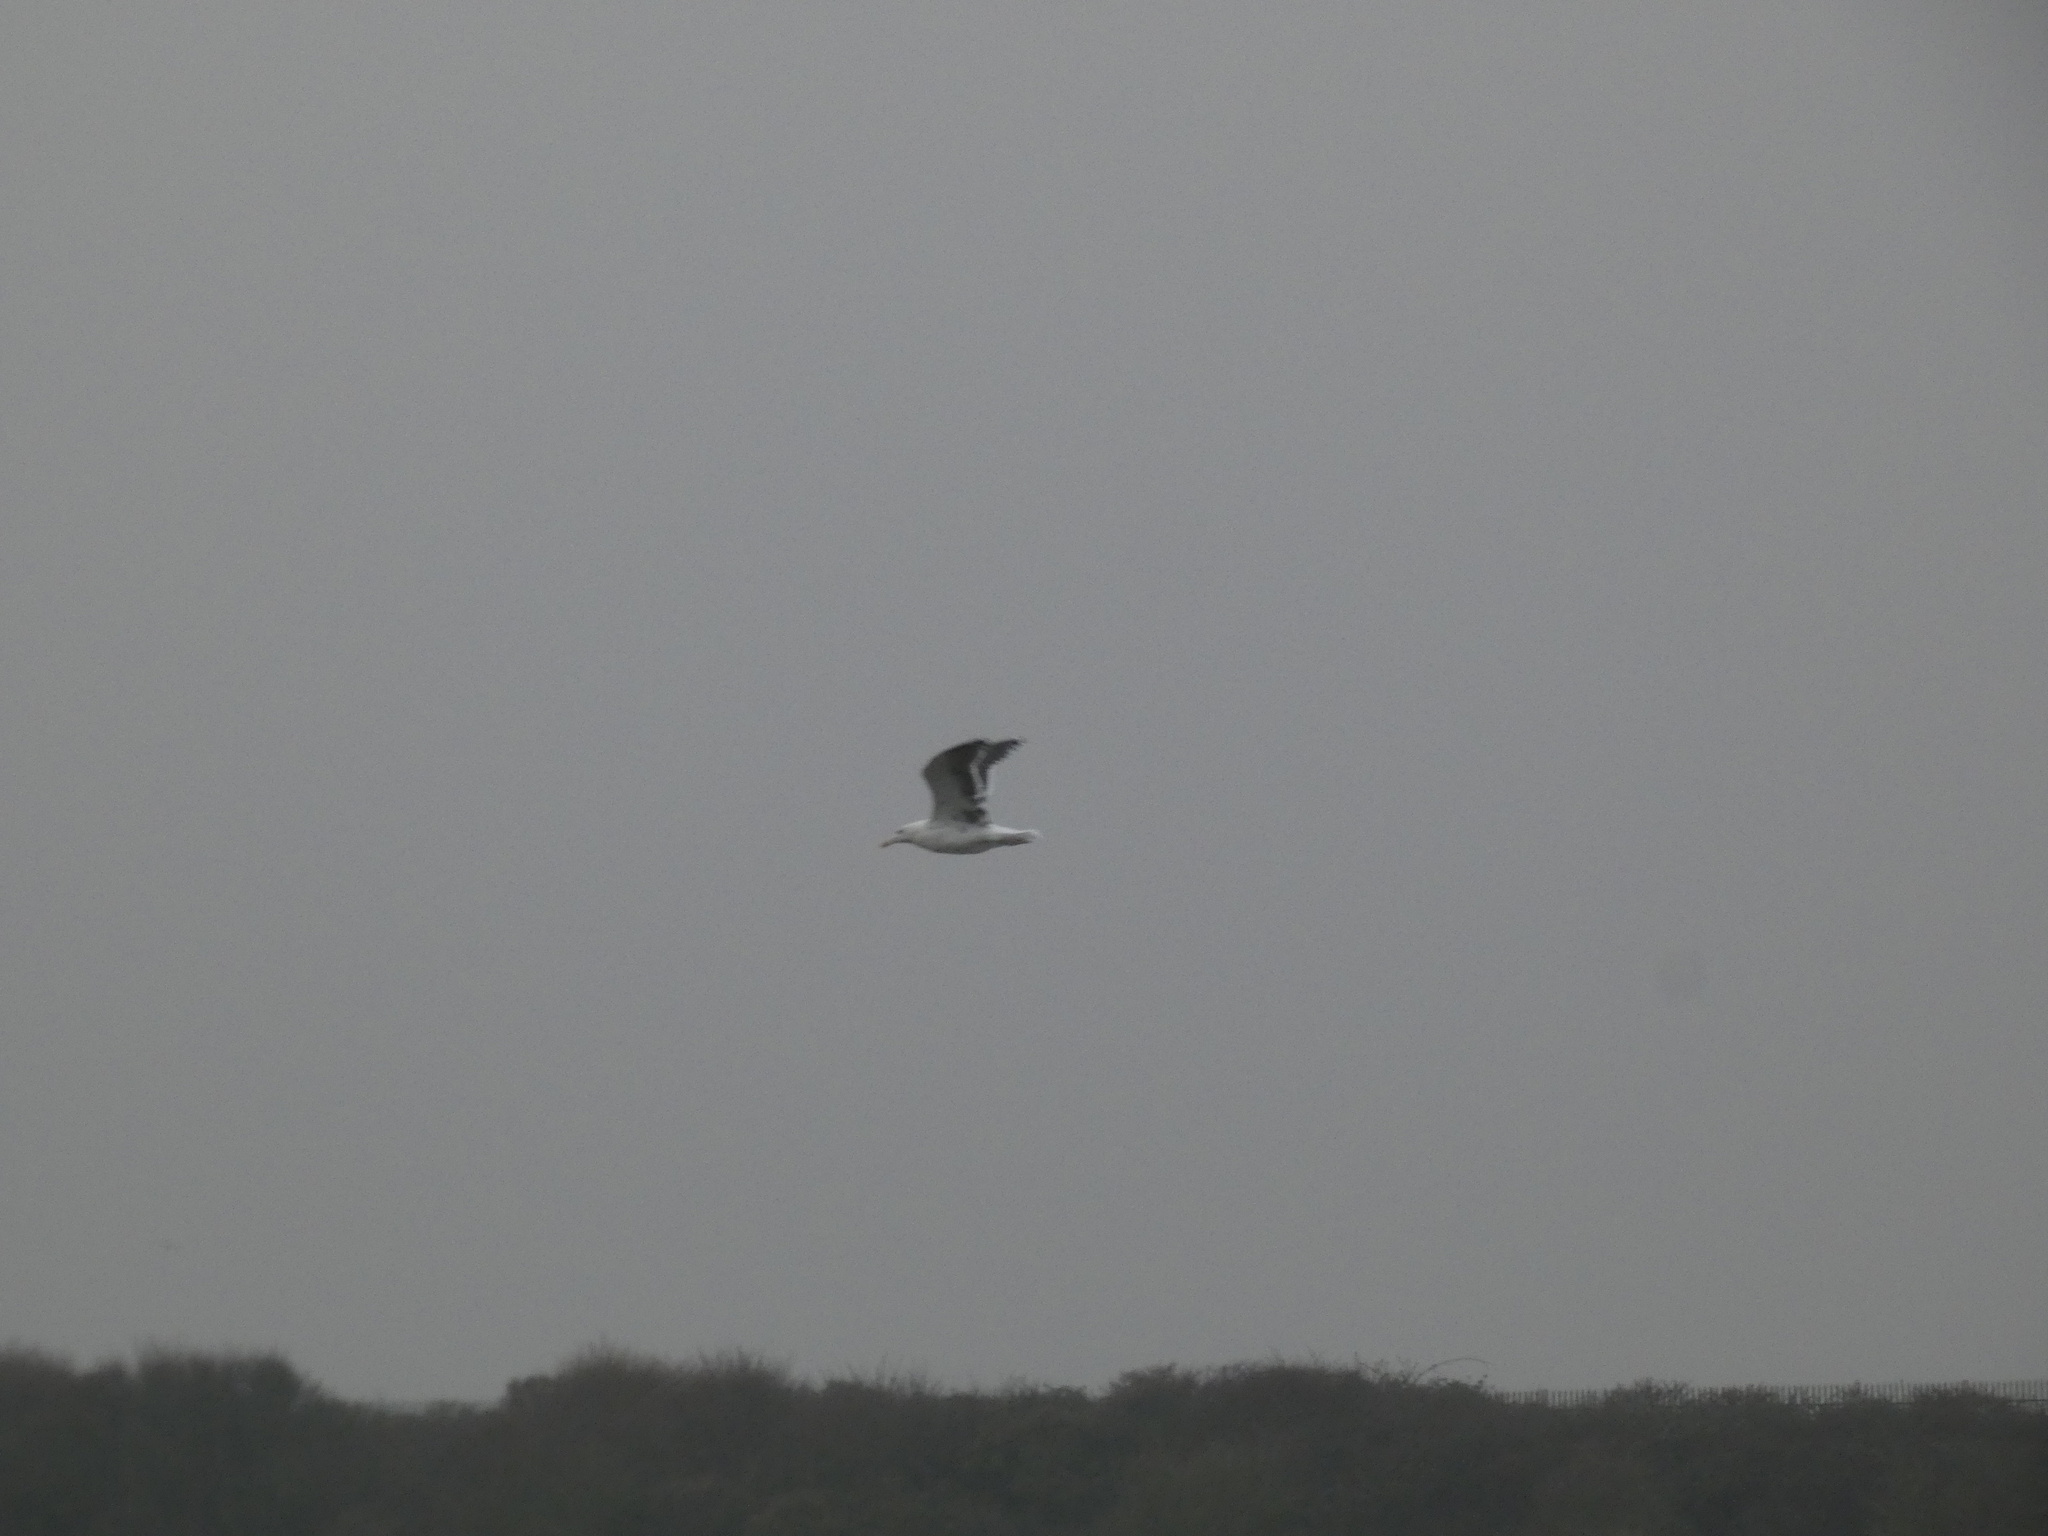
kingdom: Animalia
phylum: Chordata
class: Aves
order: Charadriiformes
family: Laridae
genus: Larus
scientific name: Larus marinus
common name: Great black-backed gull
